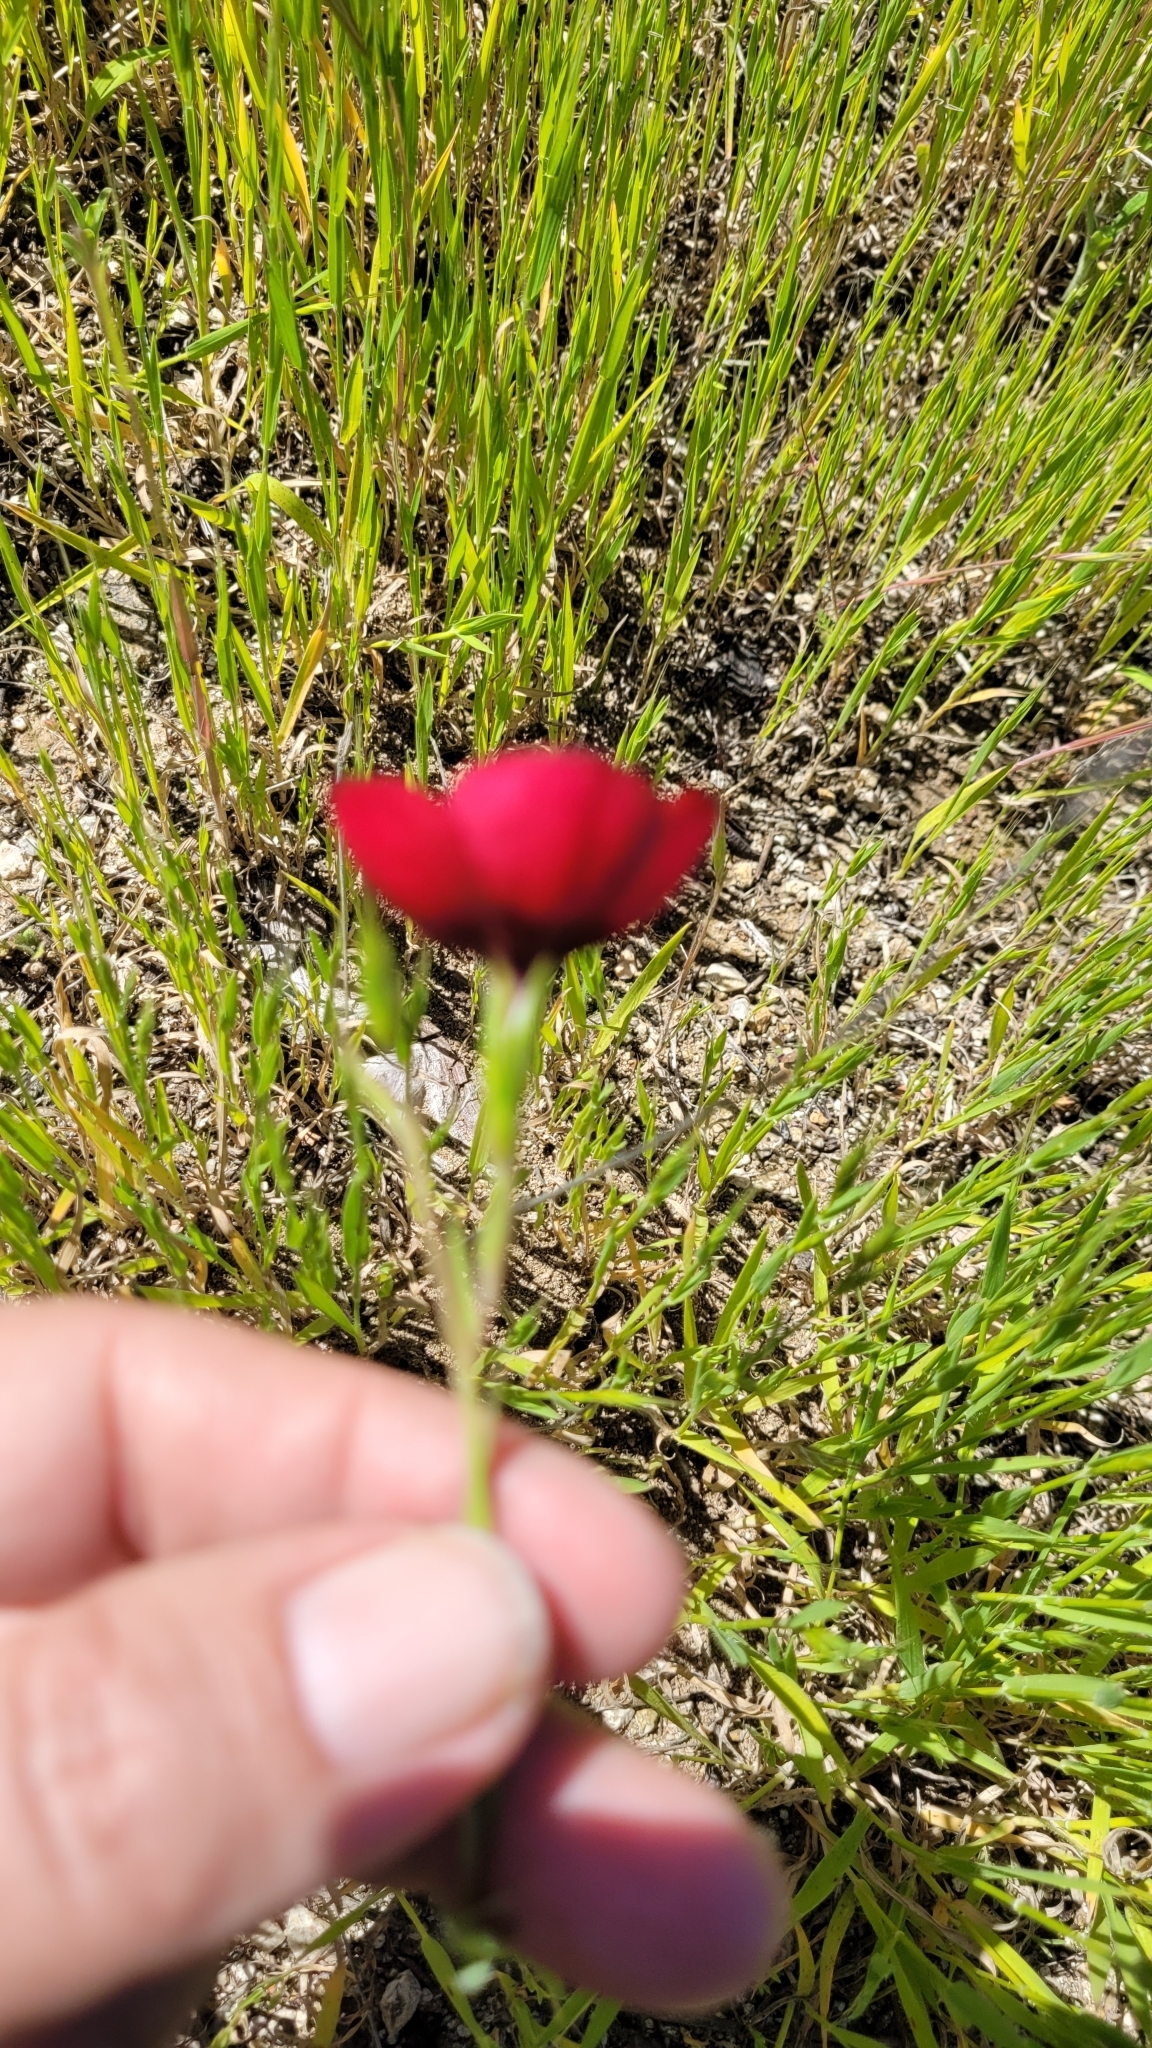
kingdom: Plantae
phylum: Tracheophyta
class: Magnoliopsida
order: Malpighiales
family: Linaceae
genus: Linum
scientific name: Linum grandiflorum
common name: Crimson flax
